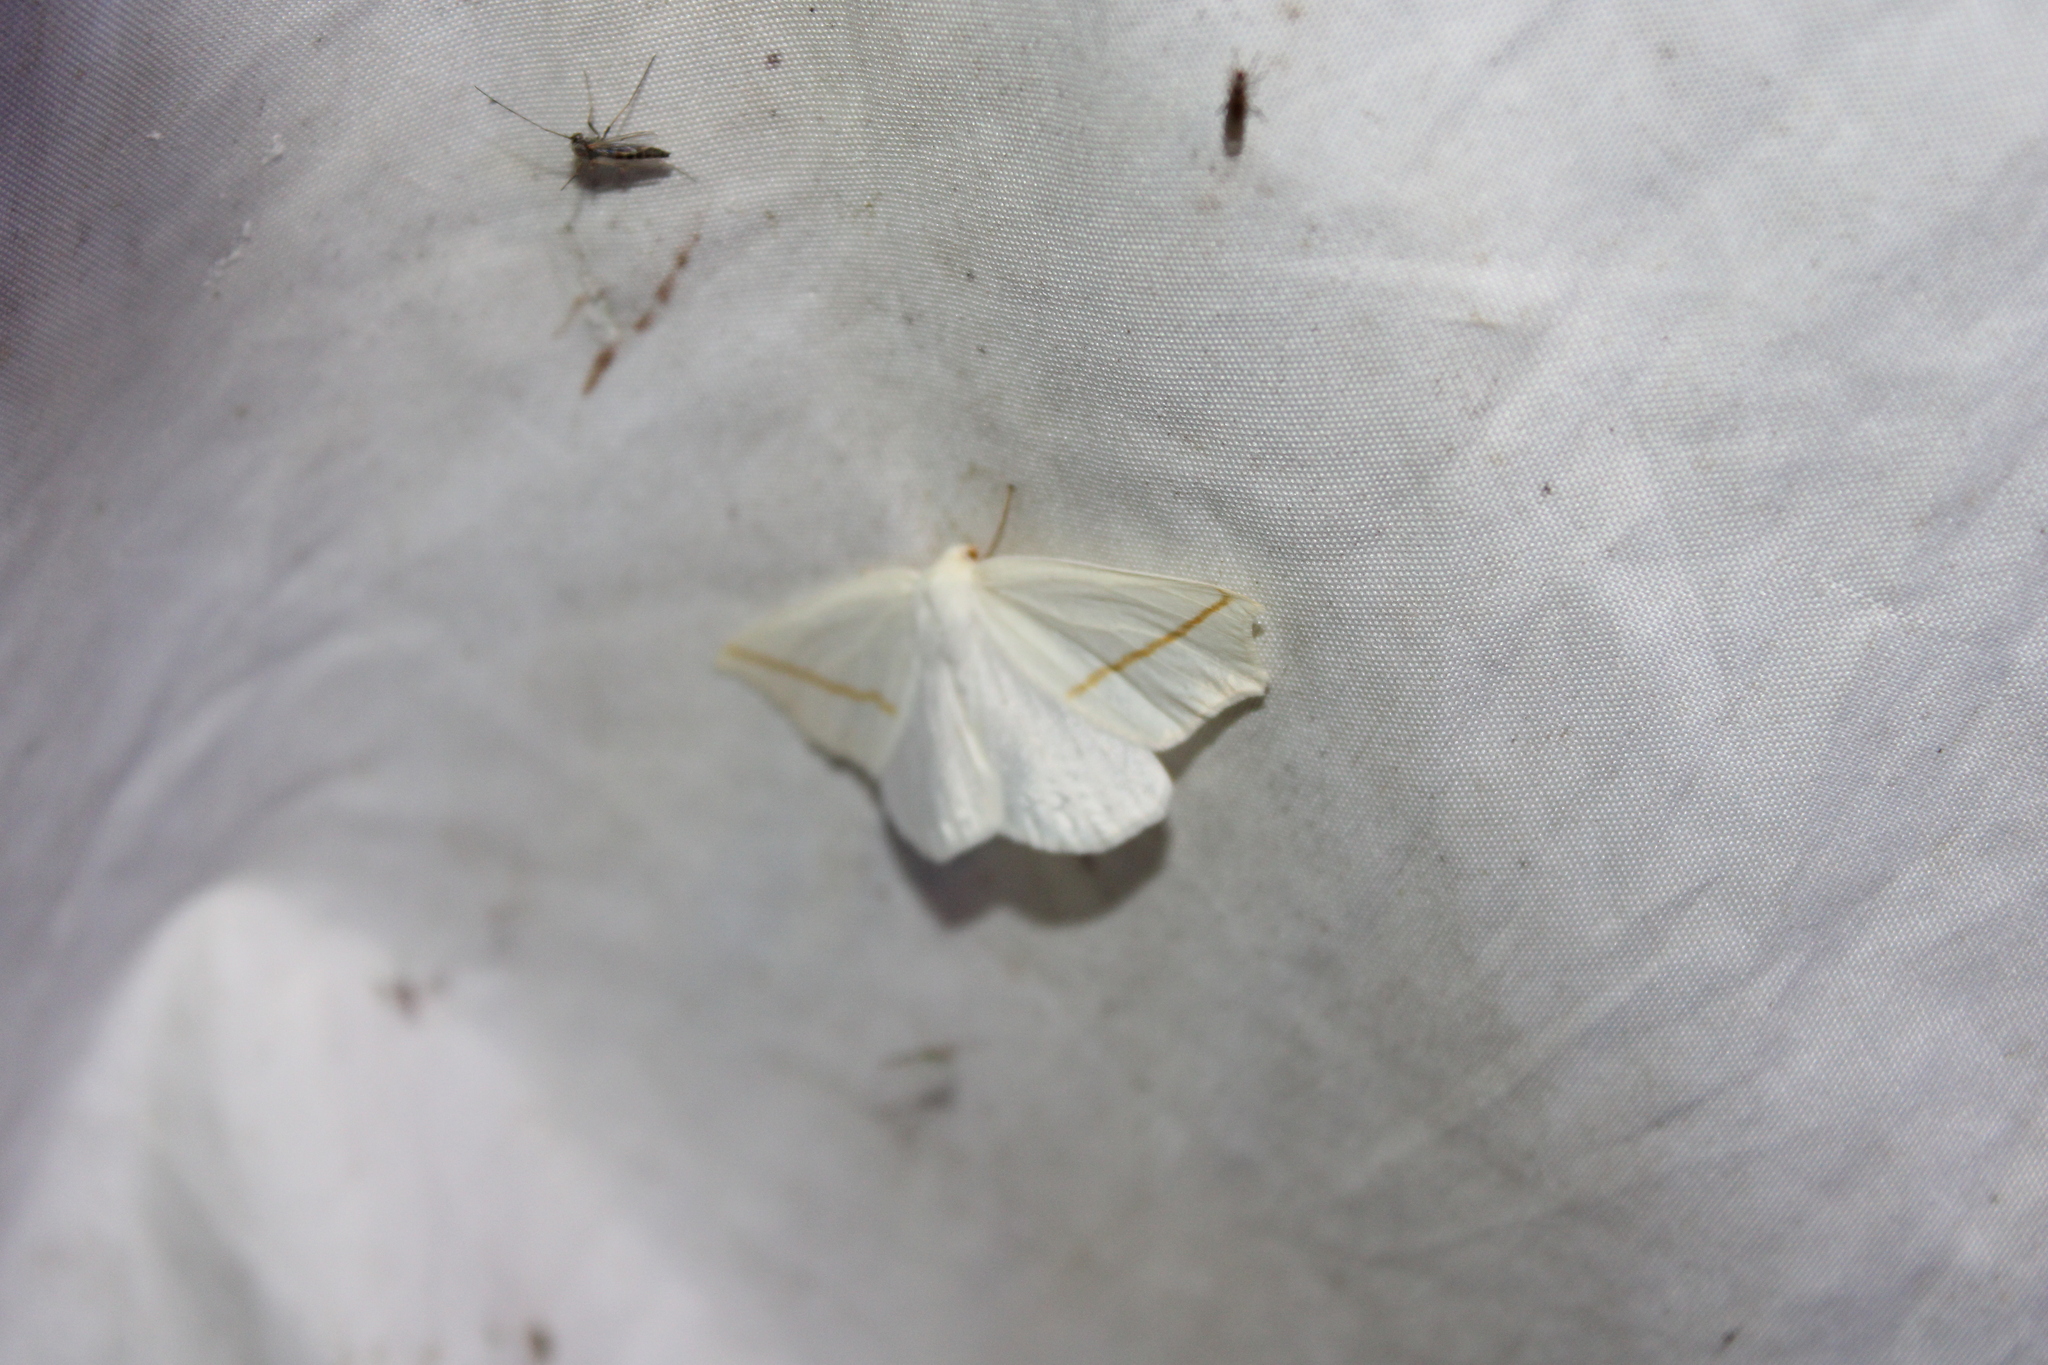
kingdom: Animalia
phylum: Arthropoda
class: Insecta
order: Lepidoptera
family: Geometridae
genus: Tetracis
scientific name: Tetracis cachexiata
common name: White slant-line
